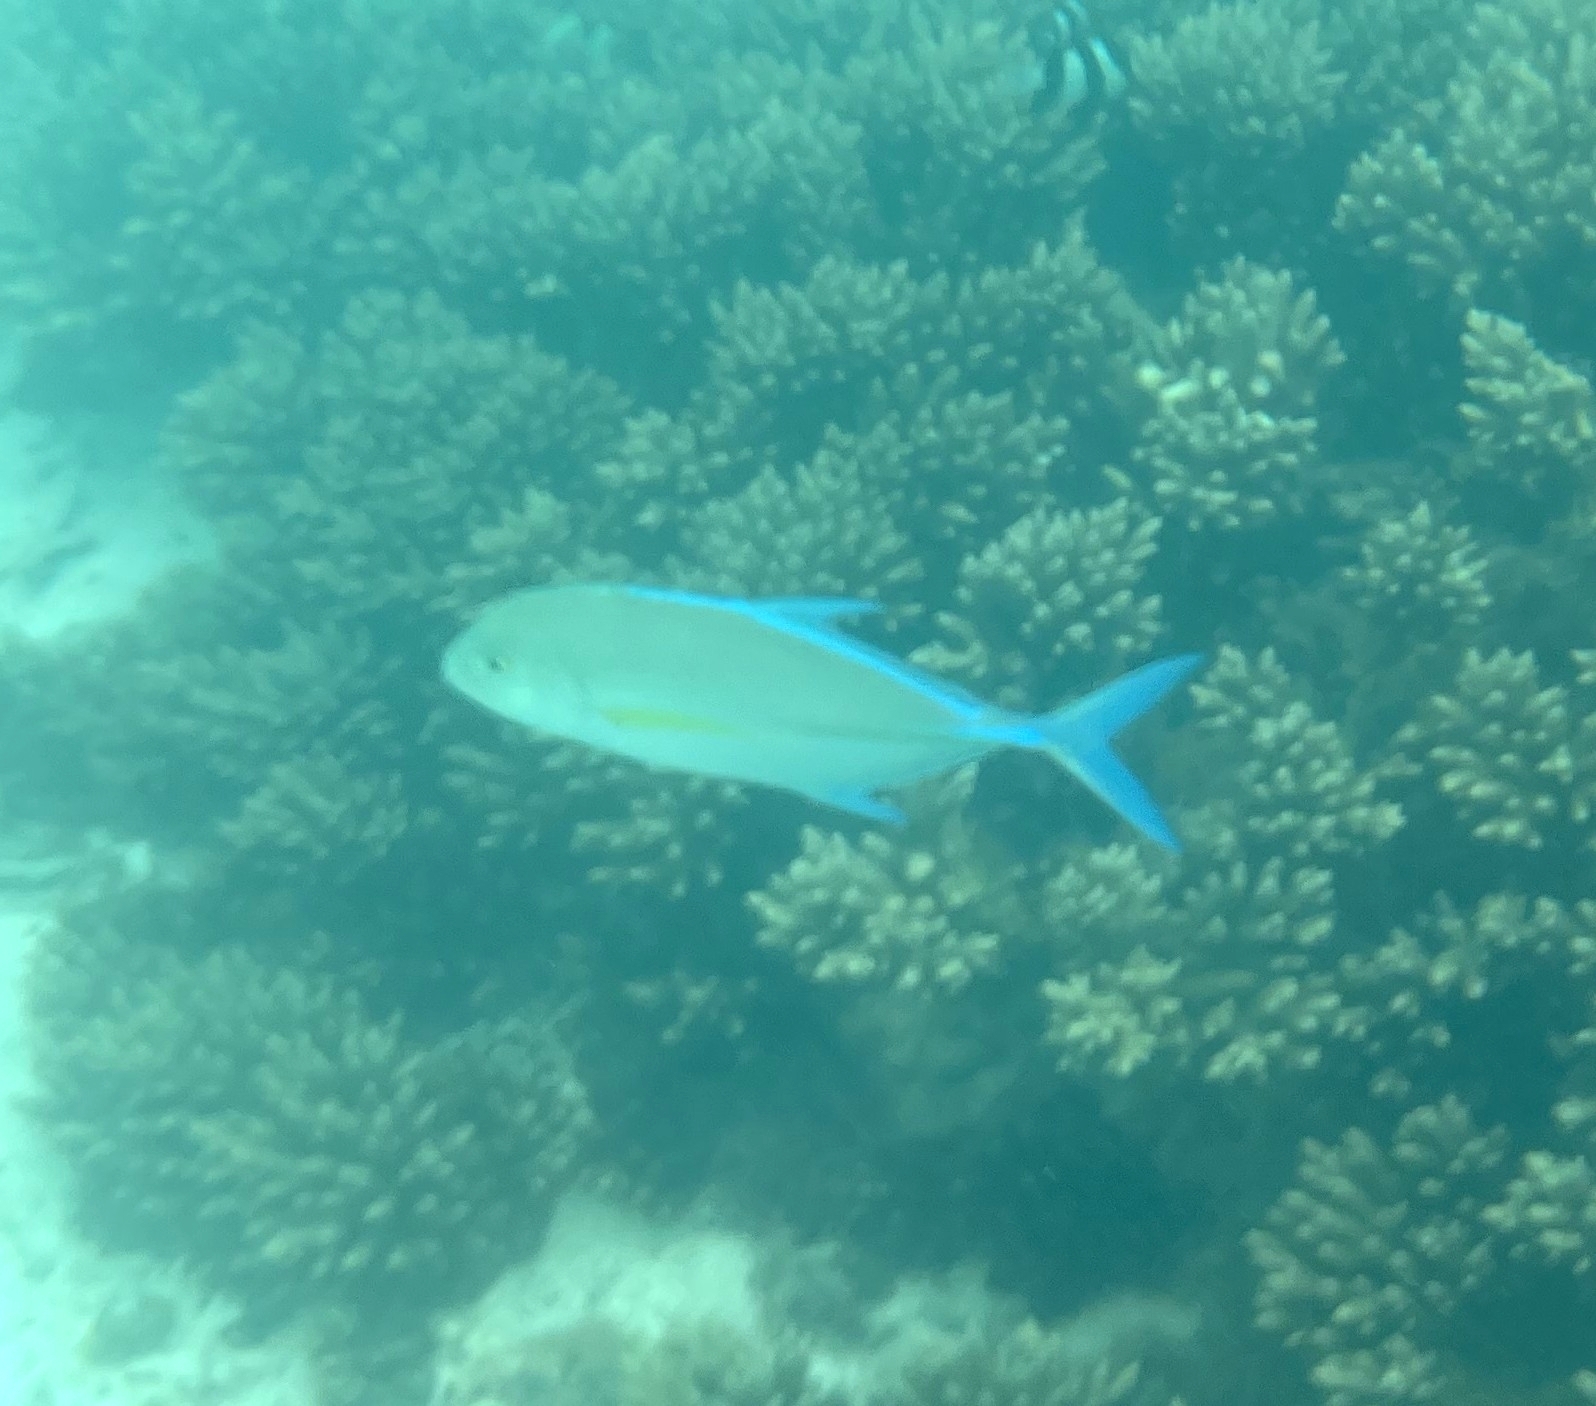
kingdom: Animalia
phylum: Chordata
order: Perciformes
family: Carangidae
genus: Caranx
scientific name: Caranx melampygus
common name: Bluefin trevally
